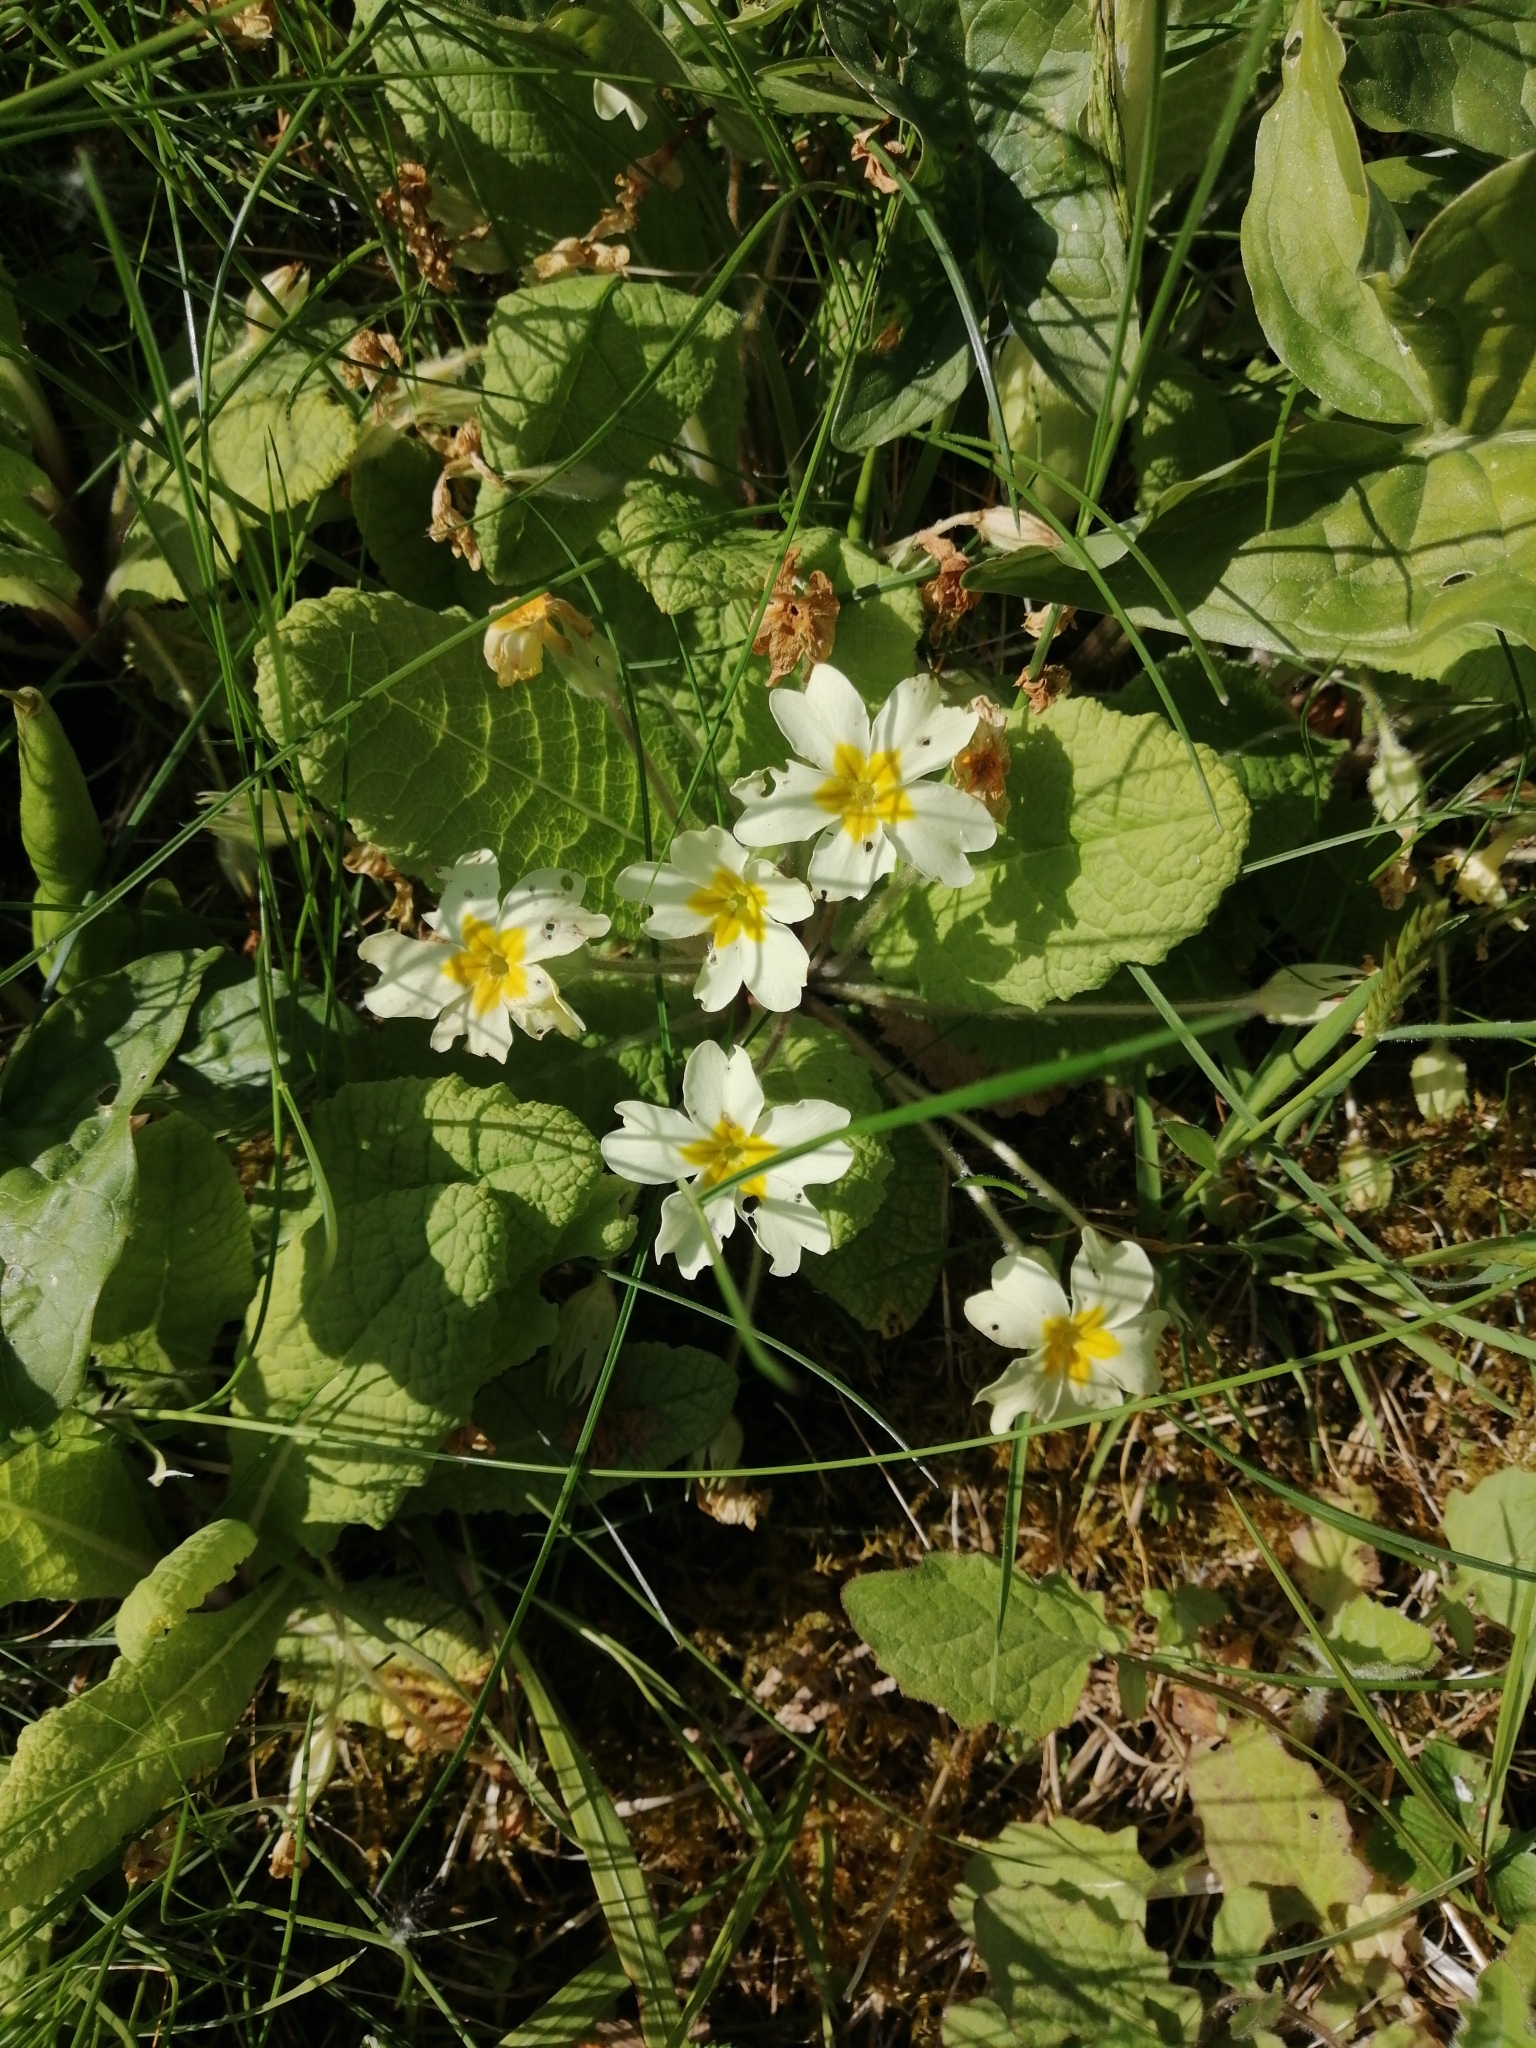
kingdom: Plantae
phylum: Tracheophyta
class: Magnoliopsida
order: Ericales
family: Primulaceae
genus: Primula
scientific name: Primula vulgaris
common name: Primrose
